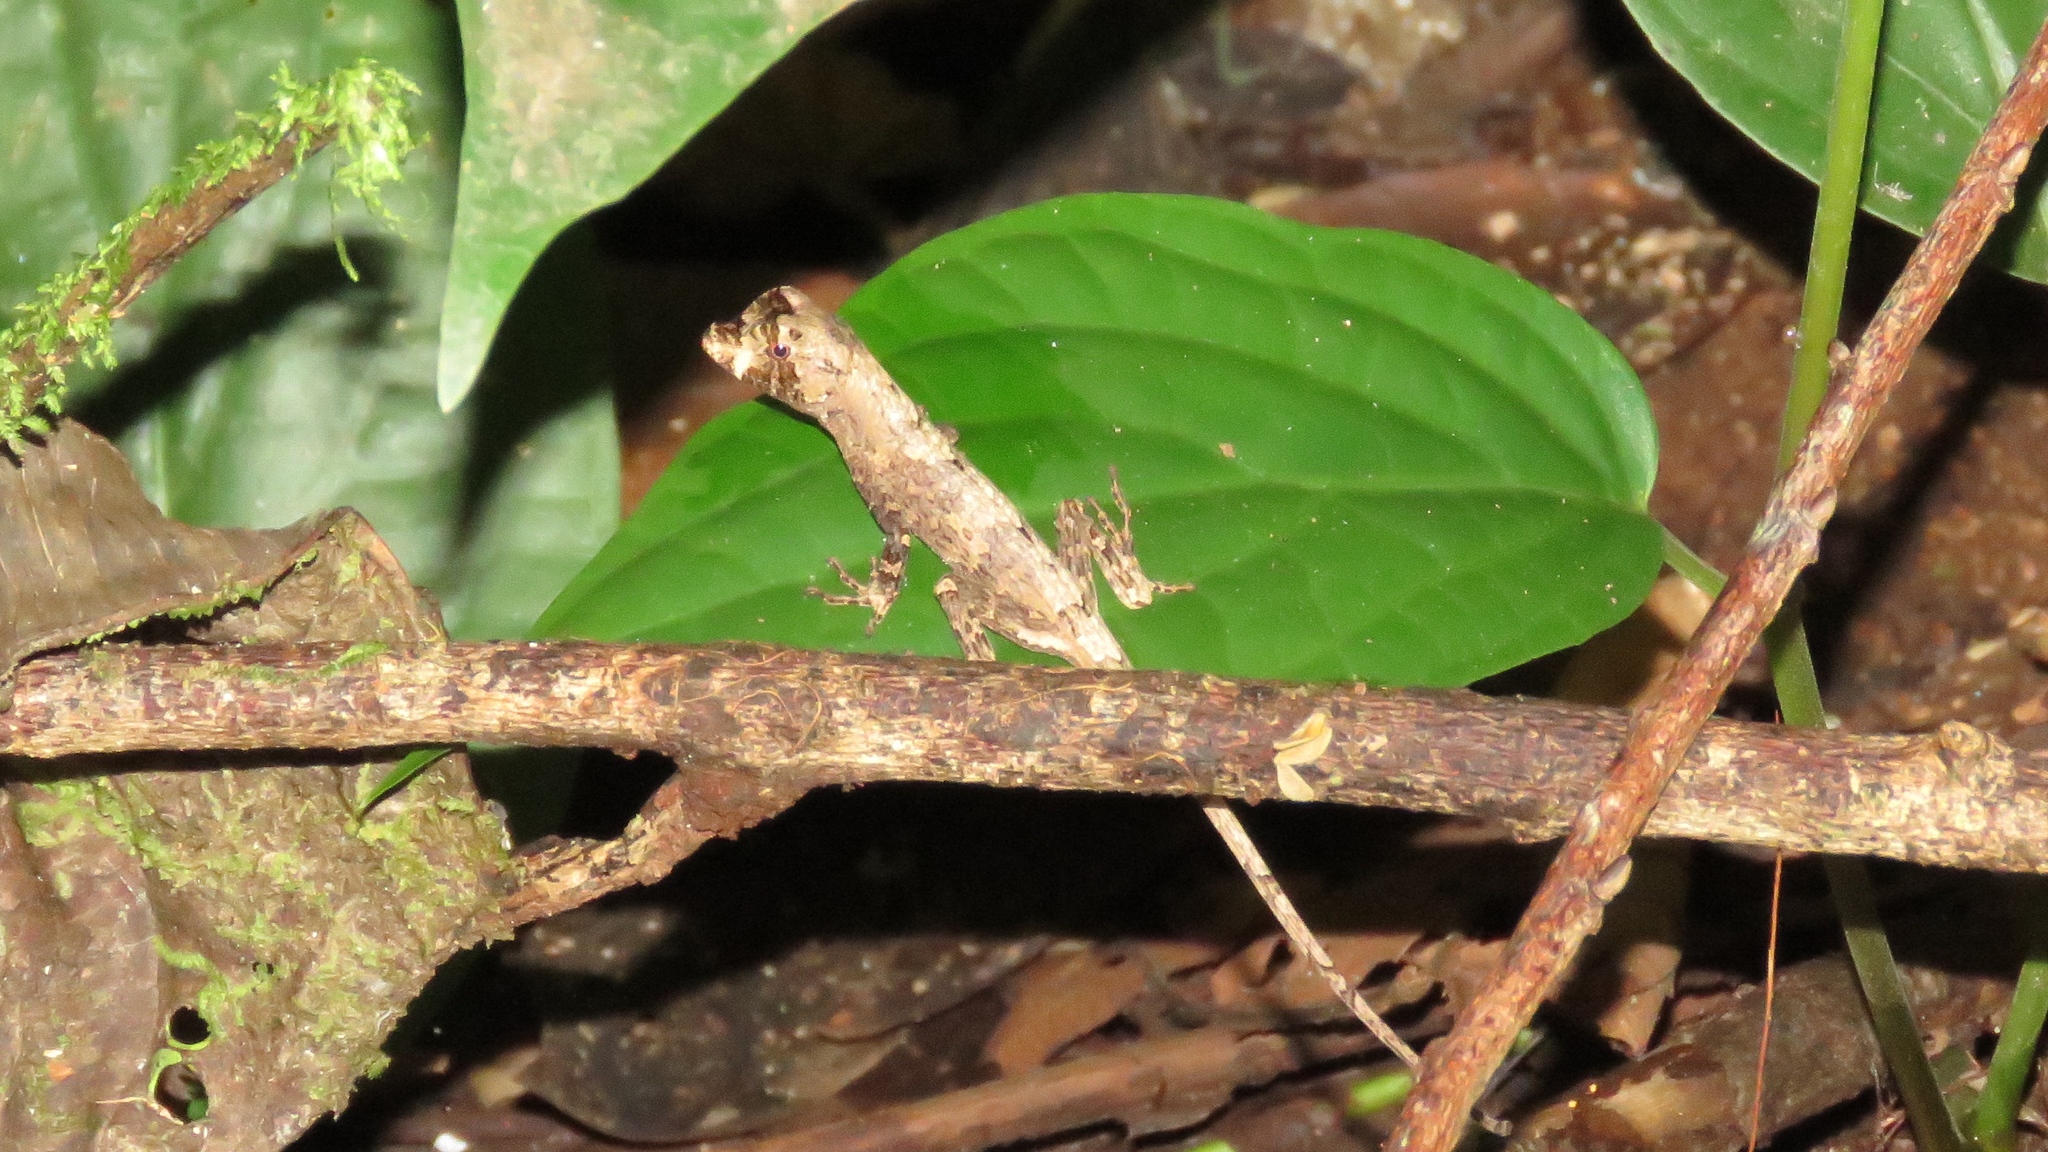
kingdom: Animalia
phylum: Chordata
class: Squamata
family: Dactyloidae
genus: Anolis
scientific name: Anolis capito
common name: Bighead anole
